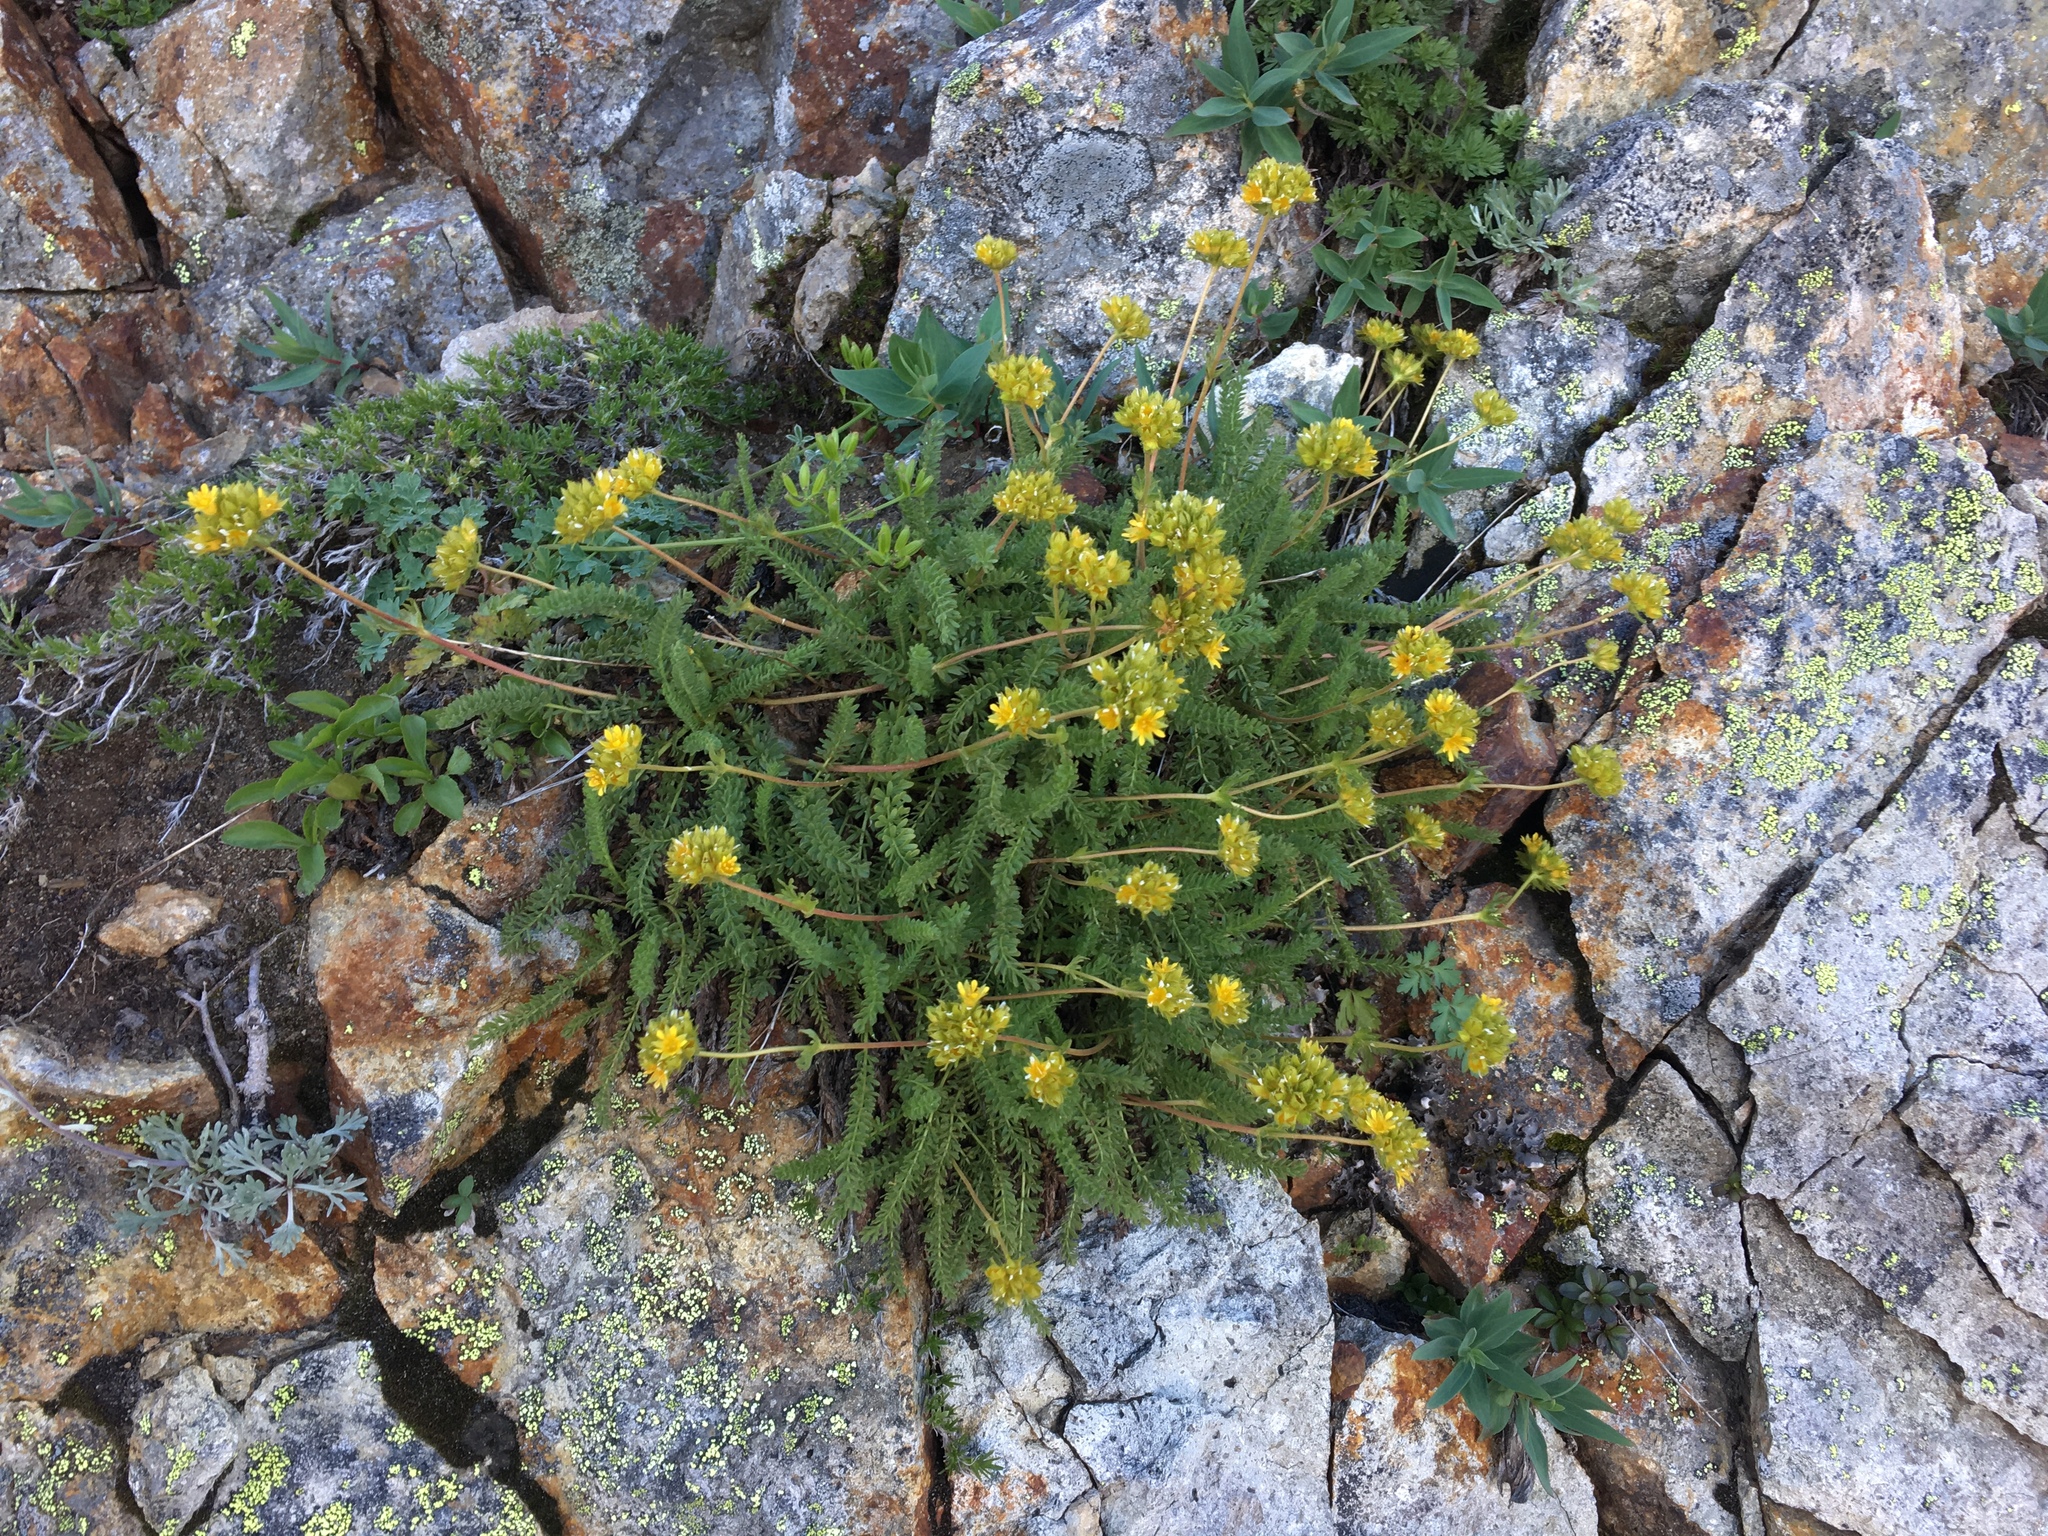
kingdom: Plantae
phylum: Tracheophyta
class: Magnoliopsida
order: Rosales
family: Rosaceae
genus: Potentilla
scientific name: Potentilla gordonii
